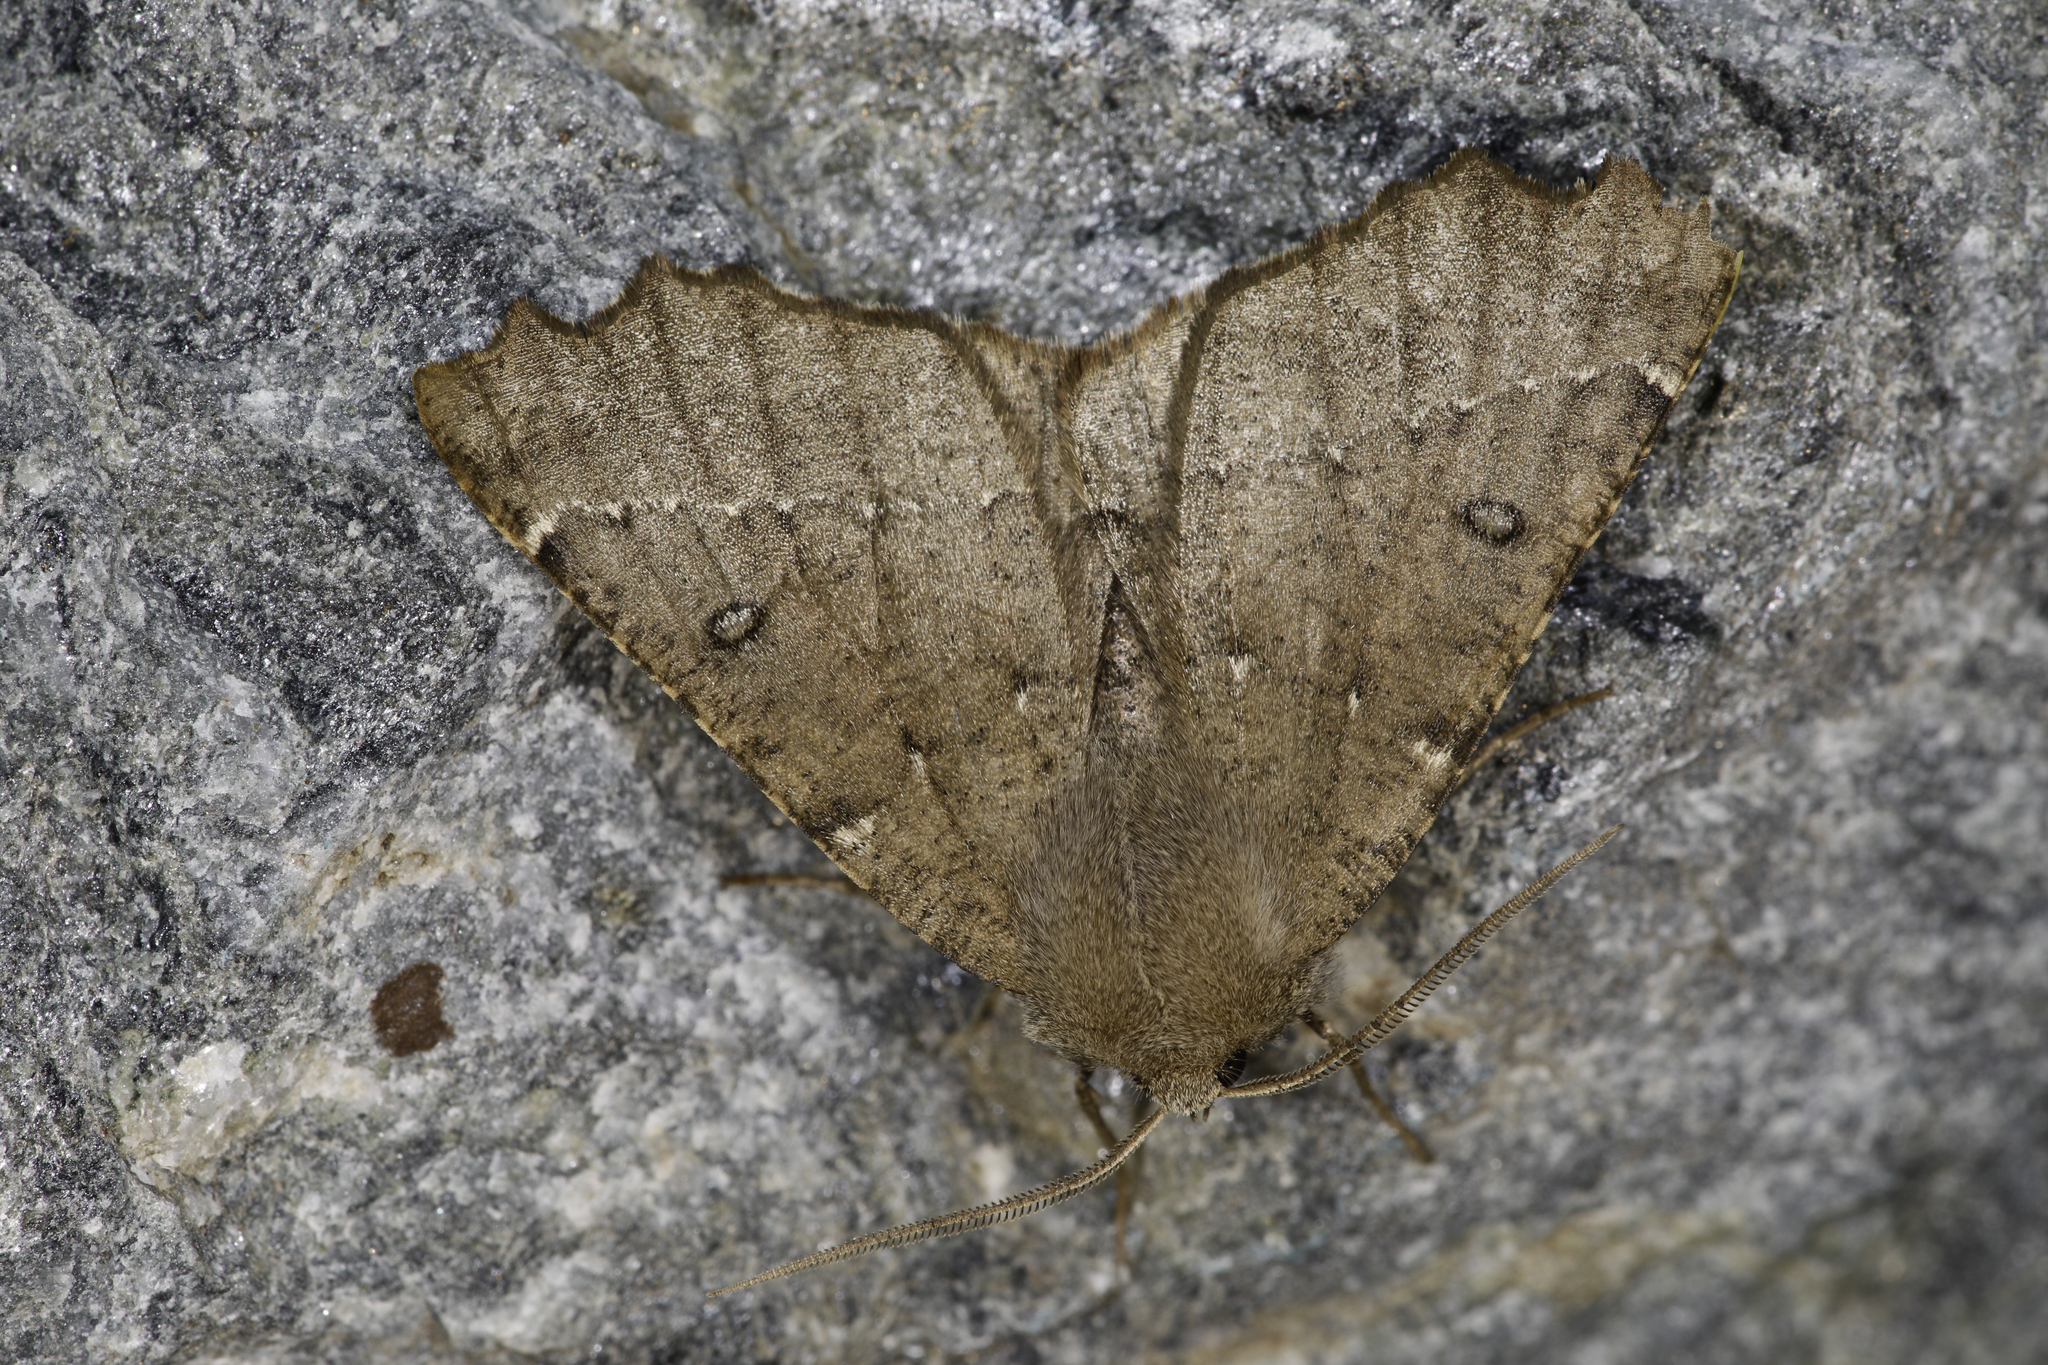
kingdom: Animalia
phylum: Arthropoda
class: Insecta
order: Lepidoptera
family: Geometridae
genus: Odontopera
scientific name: Odontopera bidentata
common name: Scalloped hazel
